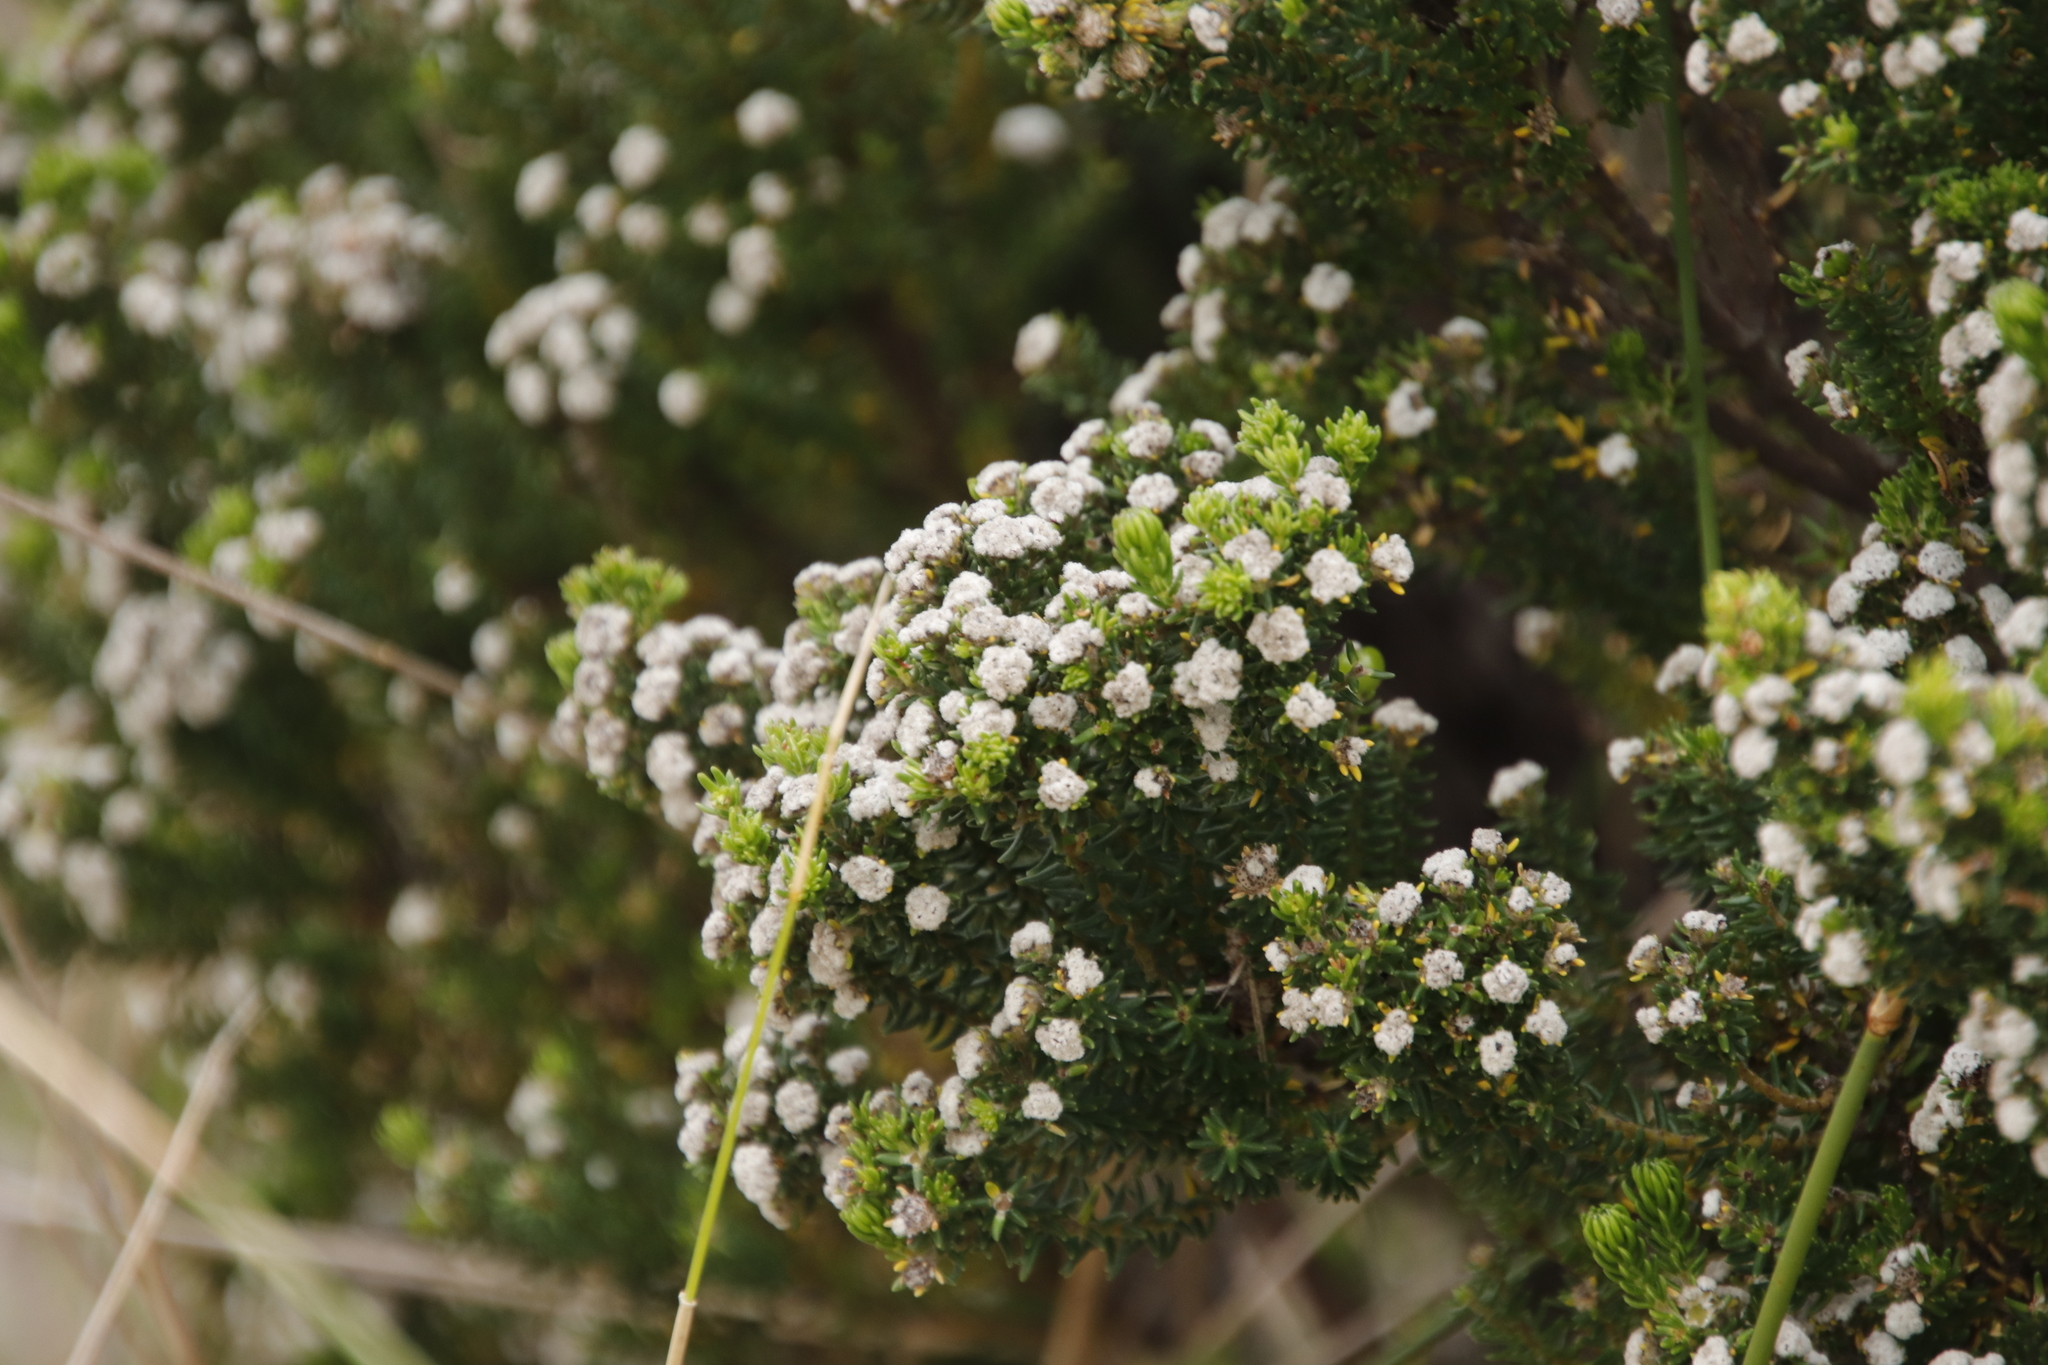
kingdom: Plantae
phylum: Tracheophyta
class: Magnoliopsida
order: Rosales
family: Rhamnaceae
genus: Phylica
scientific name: Phylica callosa
